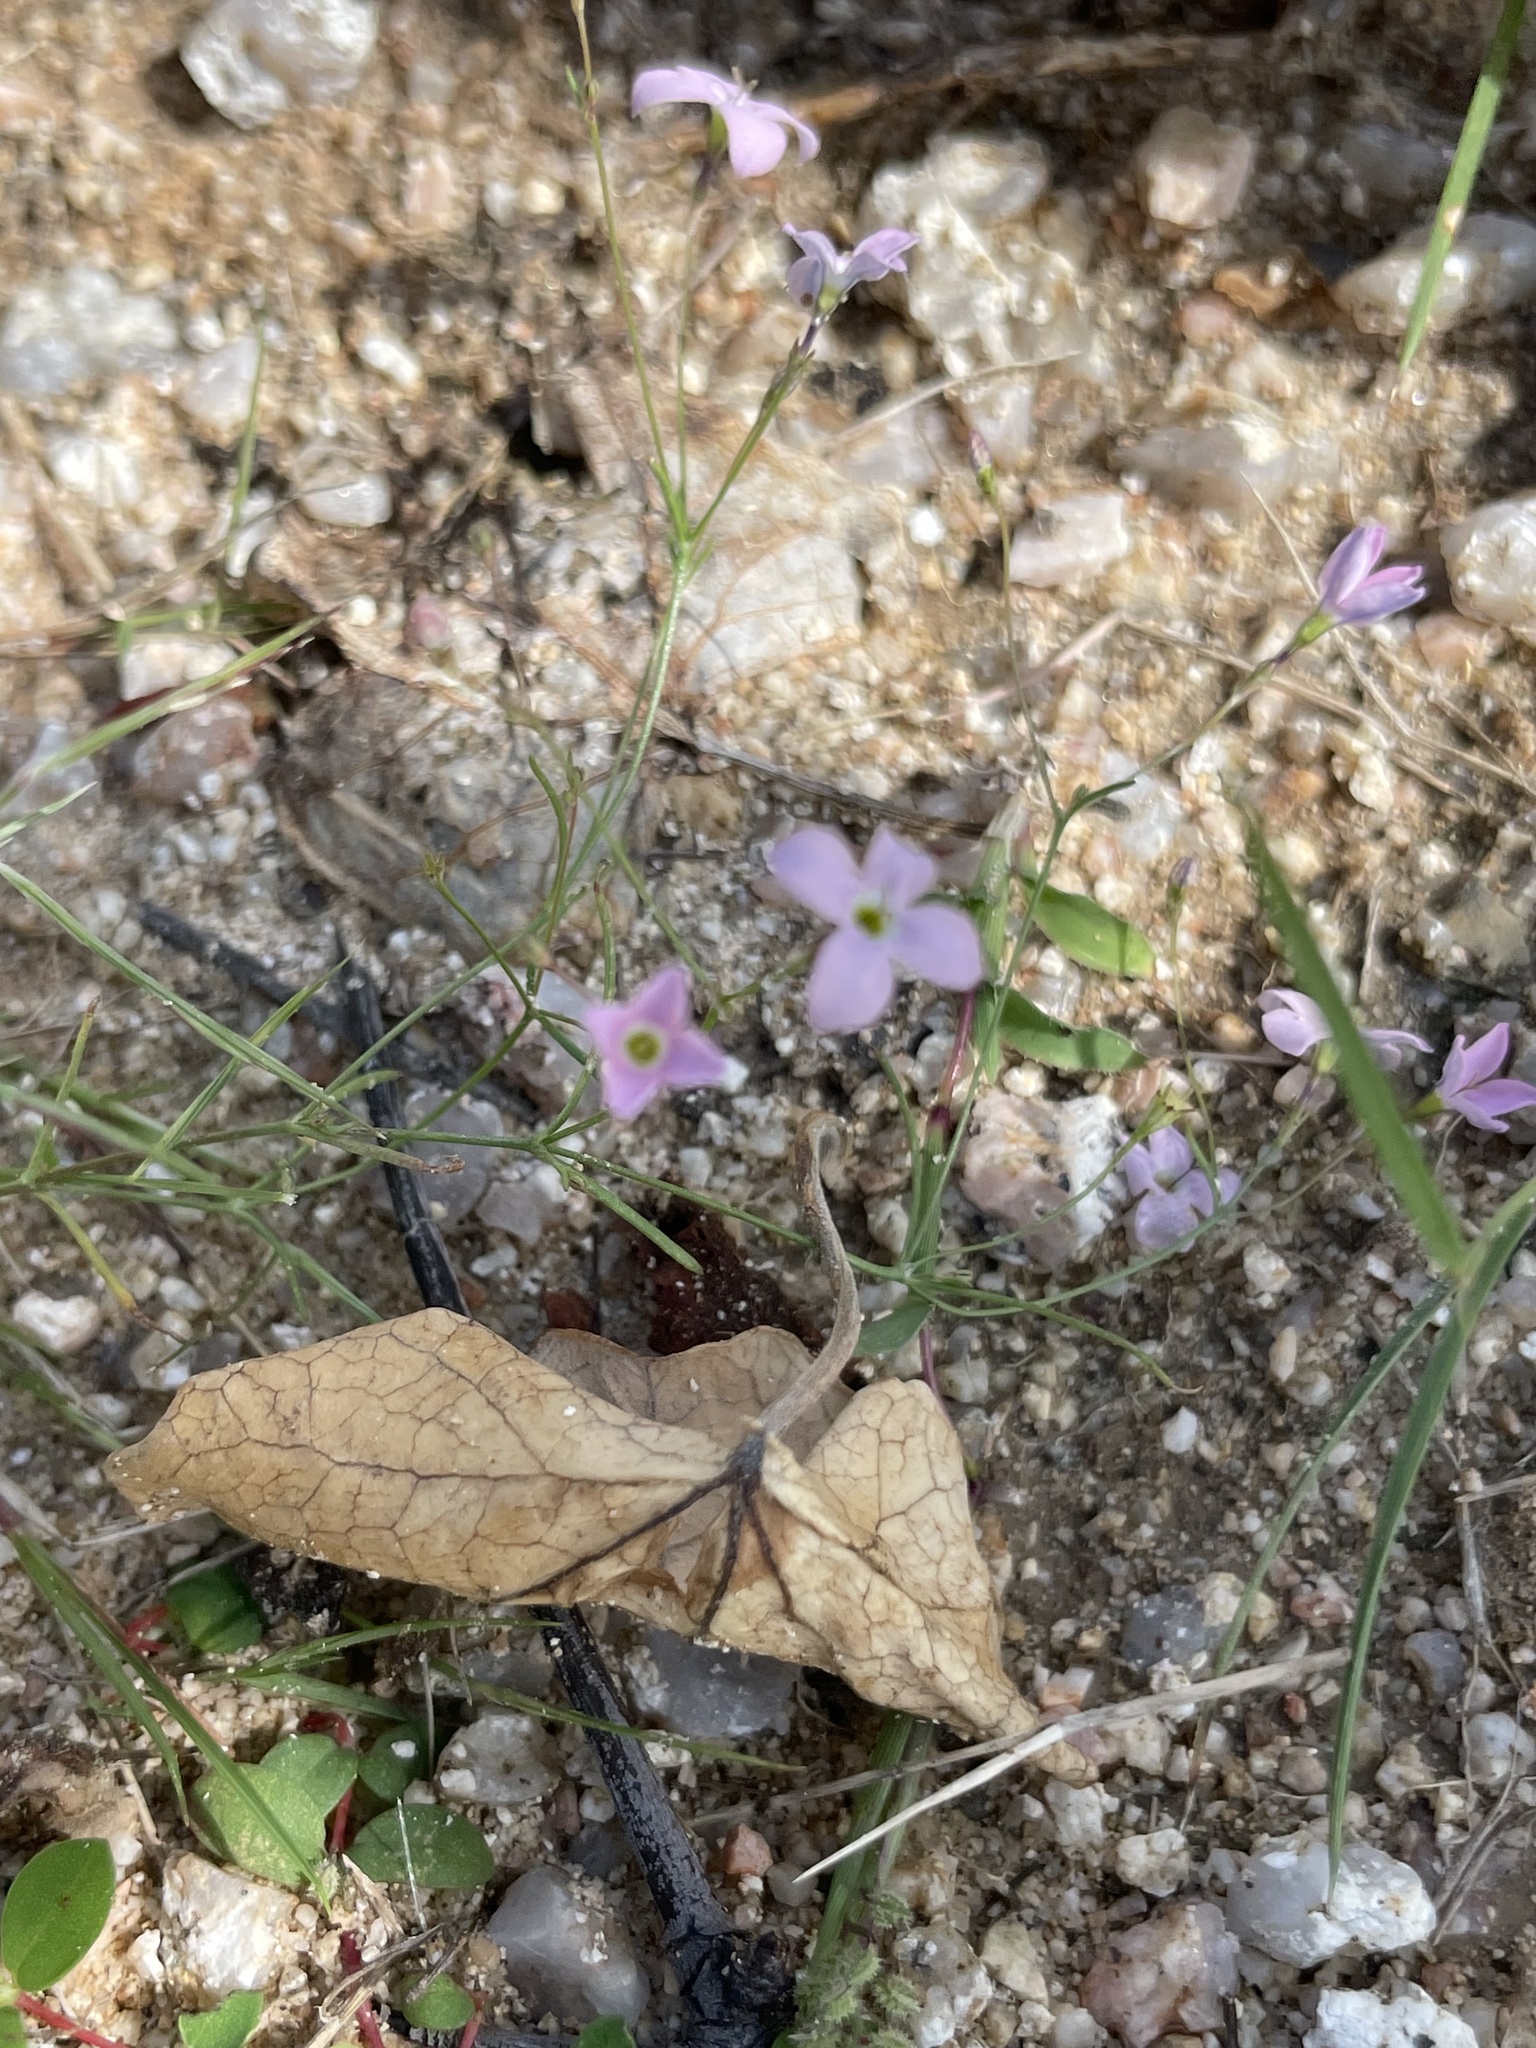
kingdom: Plantae
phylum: Tracheophyta
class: Magnoliopsida
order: Gentianales
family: Rubiaceae
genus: Stenotis
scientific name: Stenotis asperuloides
